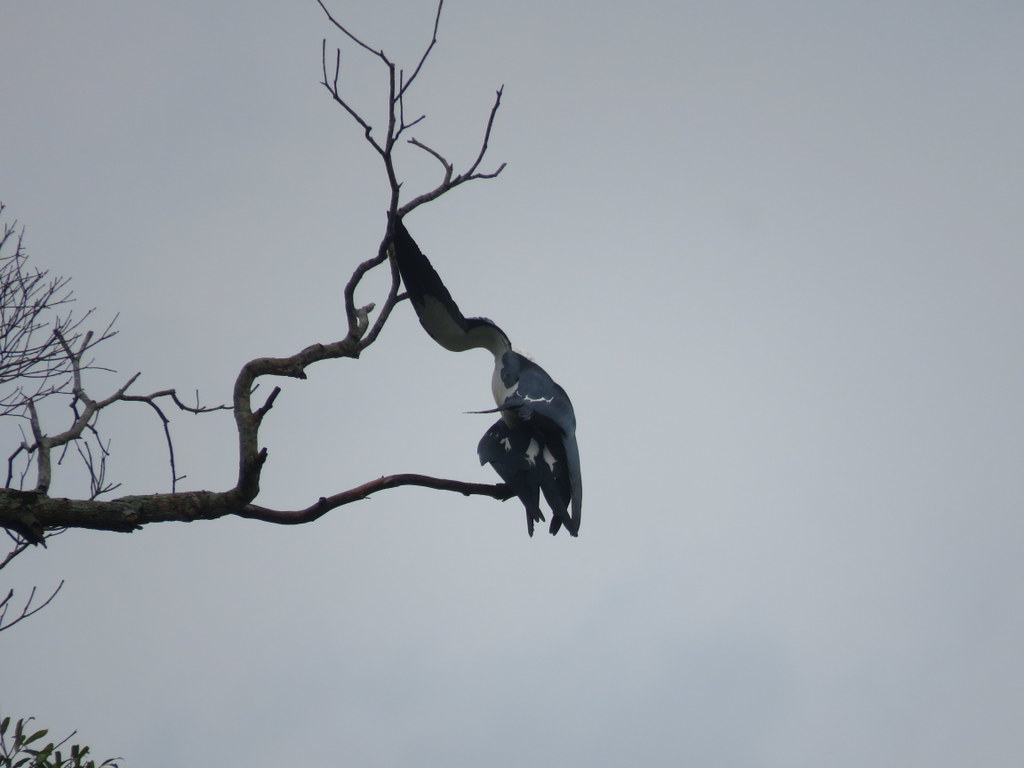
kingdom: Animalia
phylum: Chordata
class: Aves
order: Accipitriformes
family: Accipitridae
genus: Elanoides
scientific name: Elanoides forficatus
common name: Swallow-tailed kite
